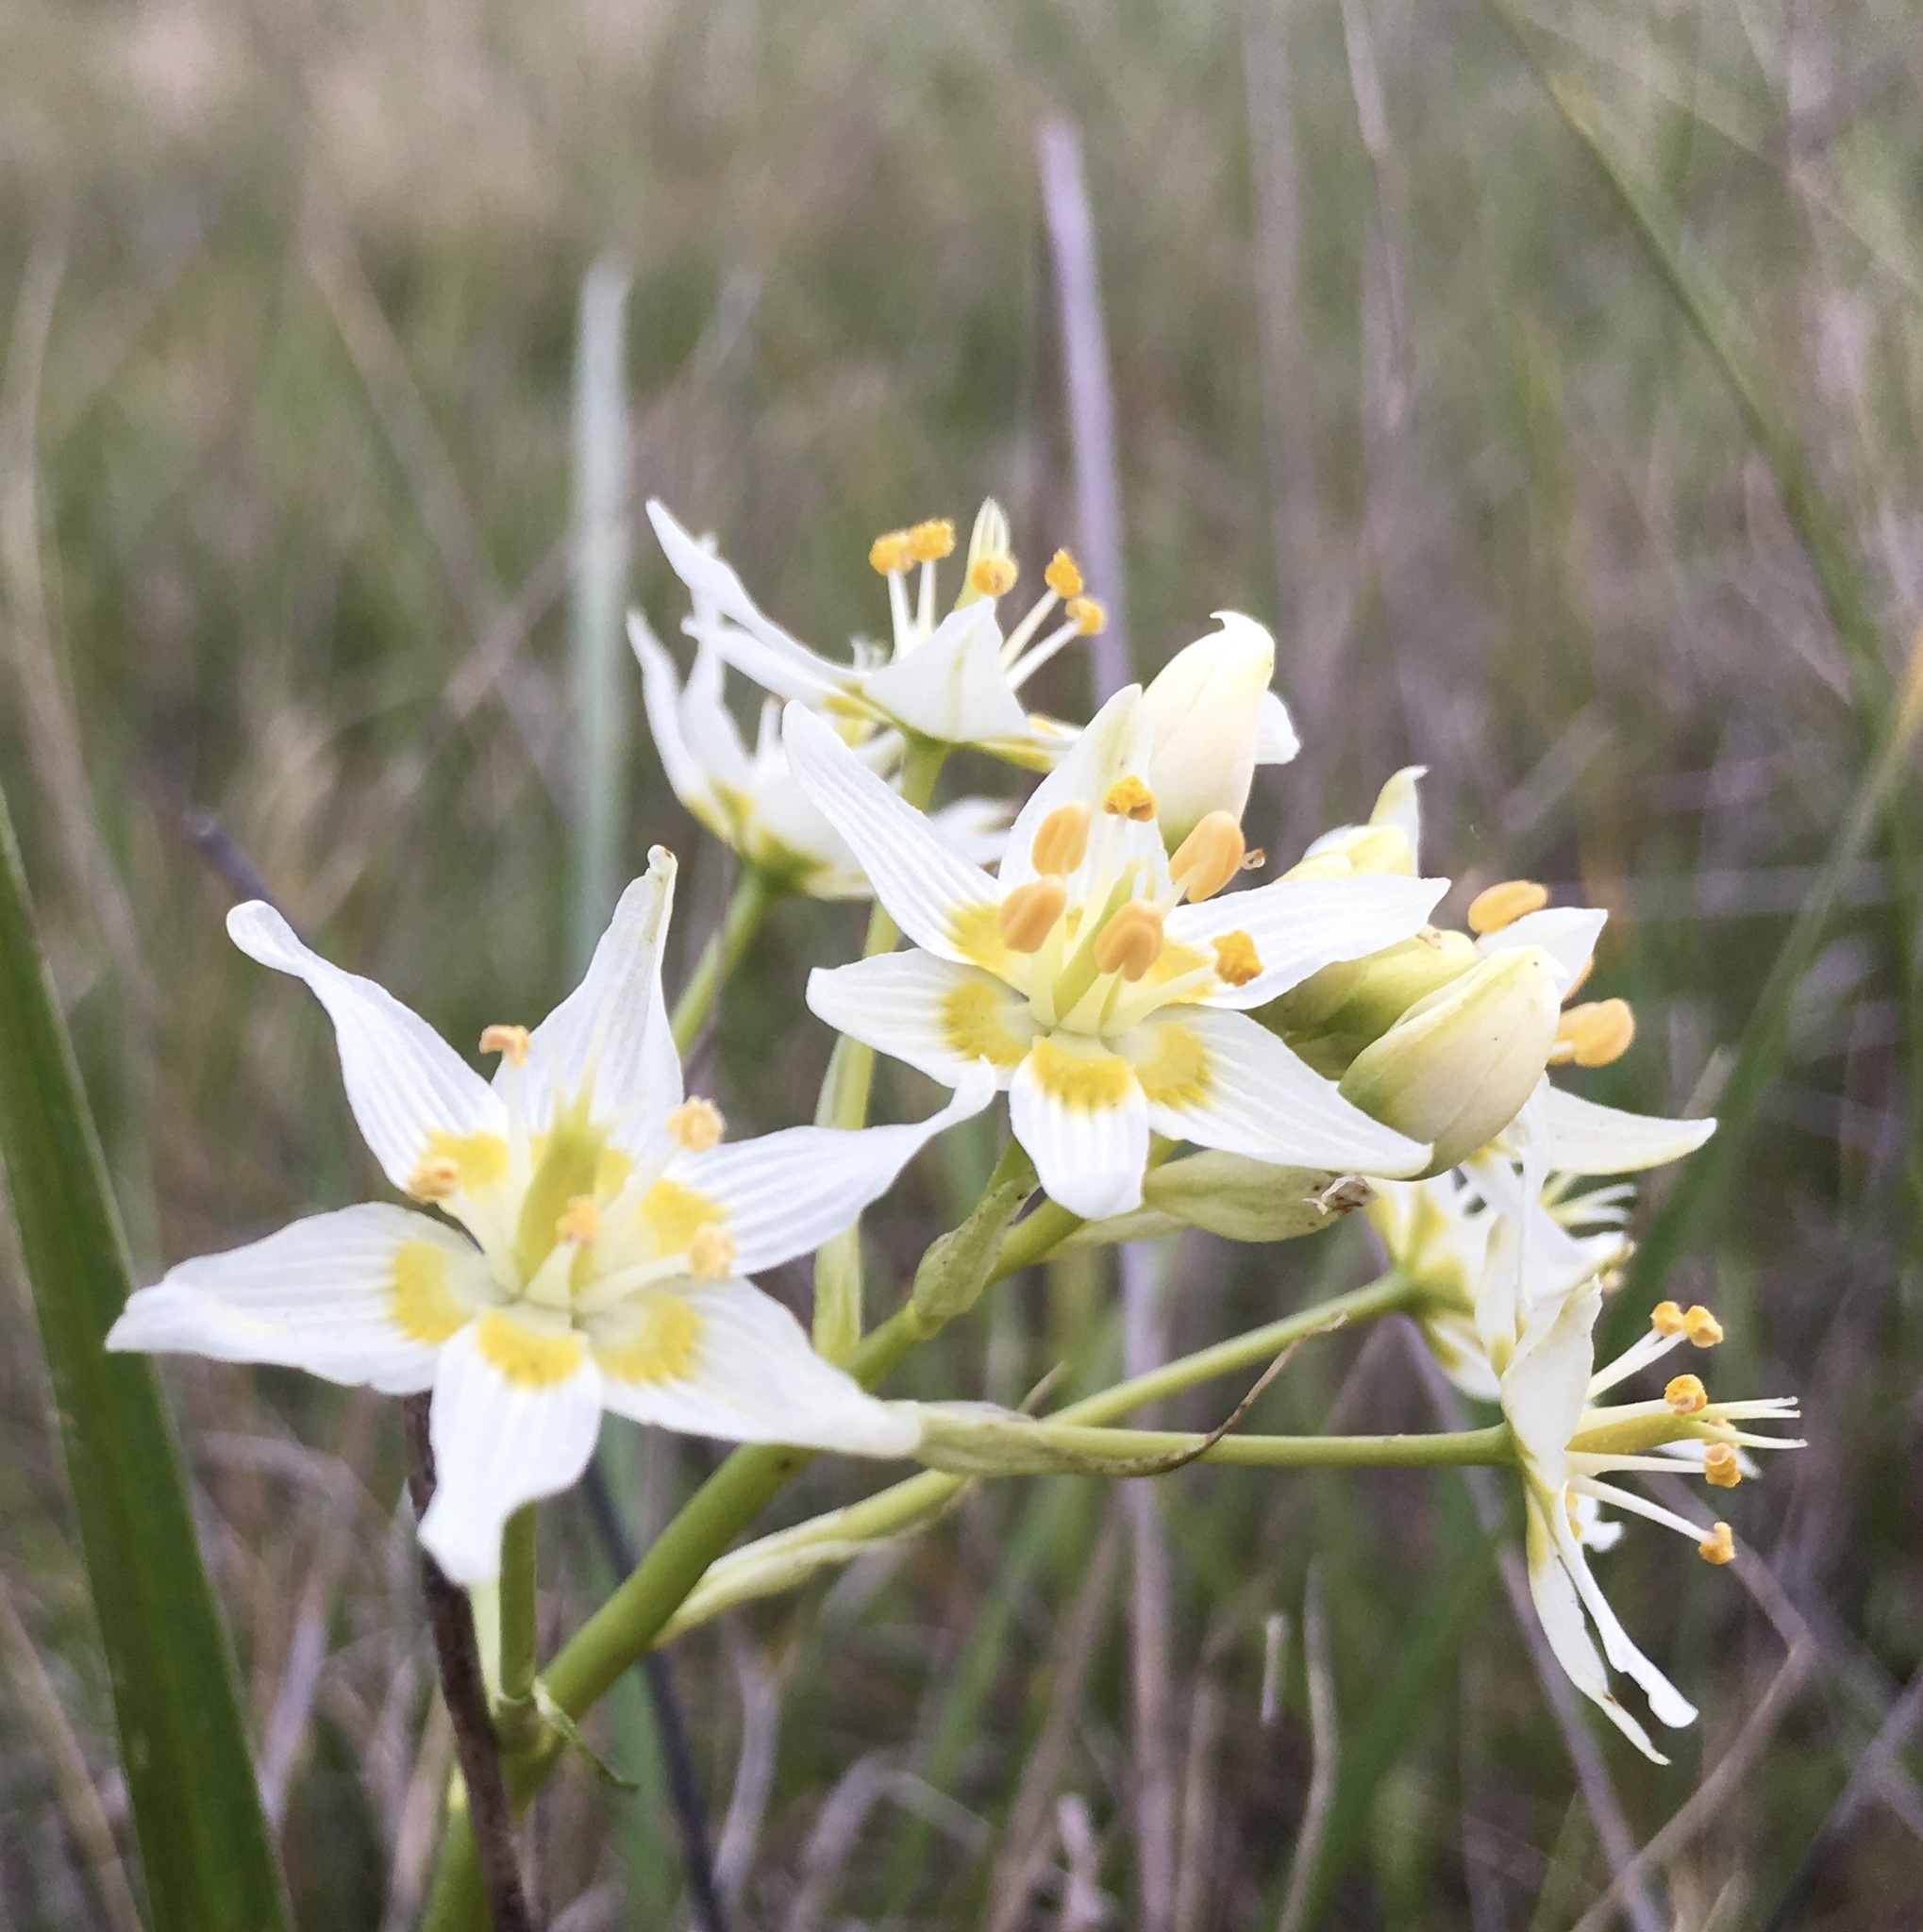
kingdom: Plantae
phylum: Tracheophyta
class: Liliopsida
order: Liliales
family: Melanthiaceae
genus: Toxicoscordion
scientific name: Toxicoscordion fremontii
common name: Fremont's death camas
